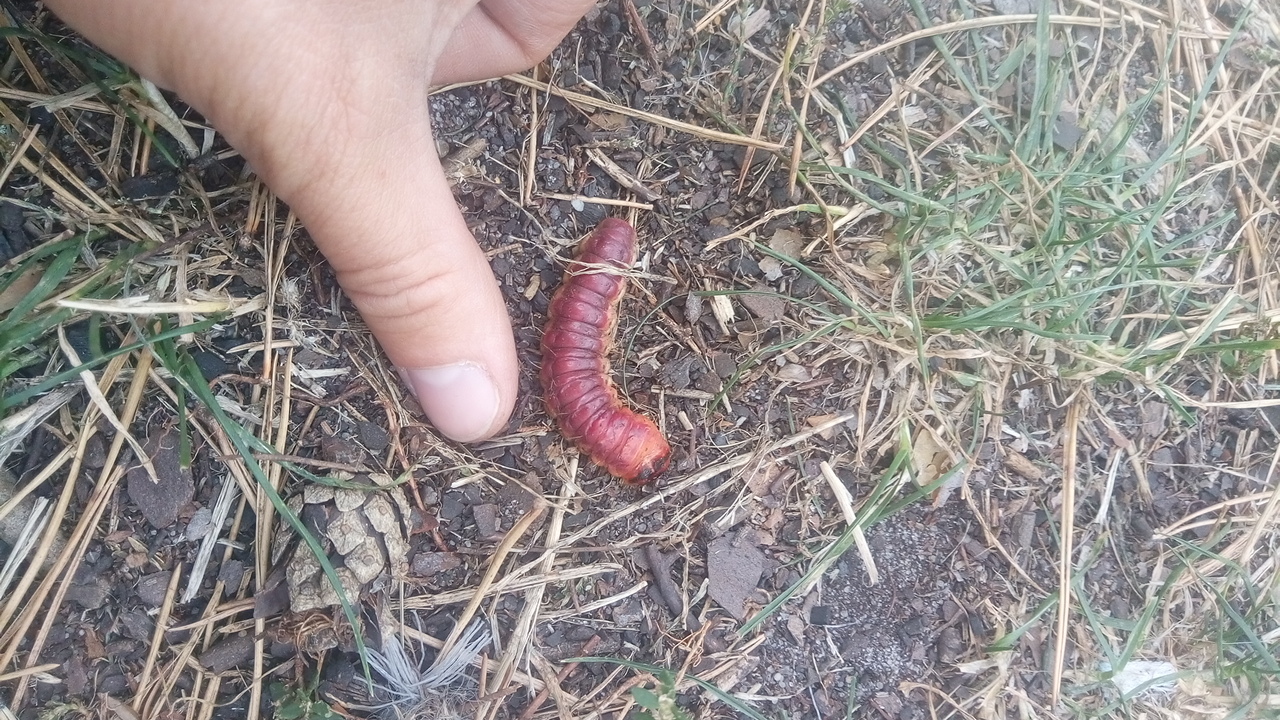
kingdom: Animalia
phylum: Arthropoda
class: Insecta
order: Lepidoptera
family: Cossidae
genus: Cossus
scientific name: Cossus cossus
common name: Goat moth
